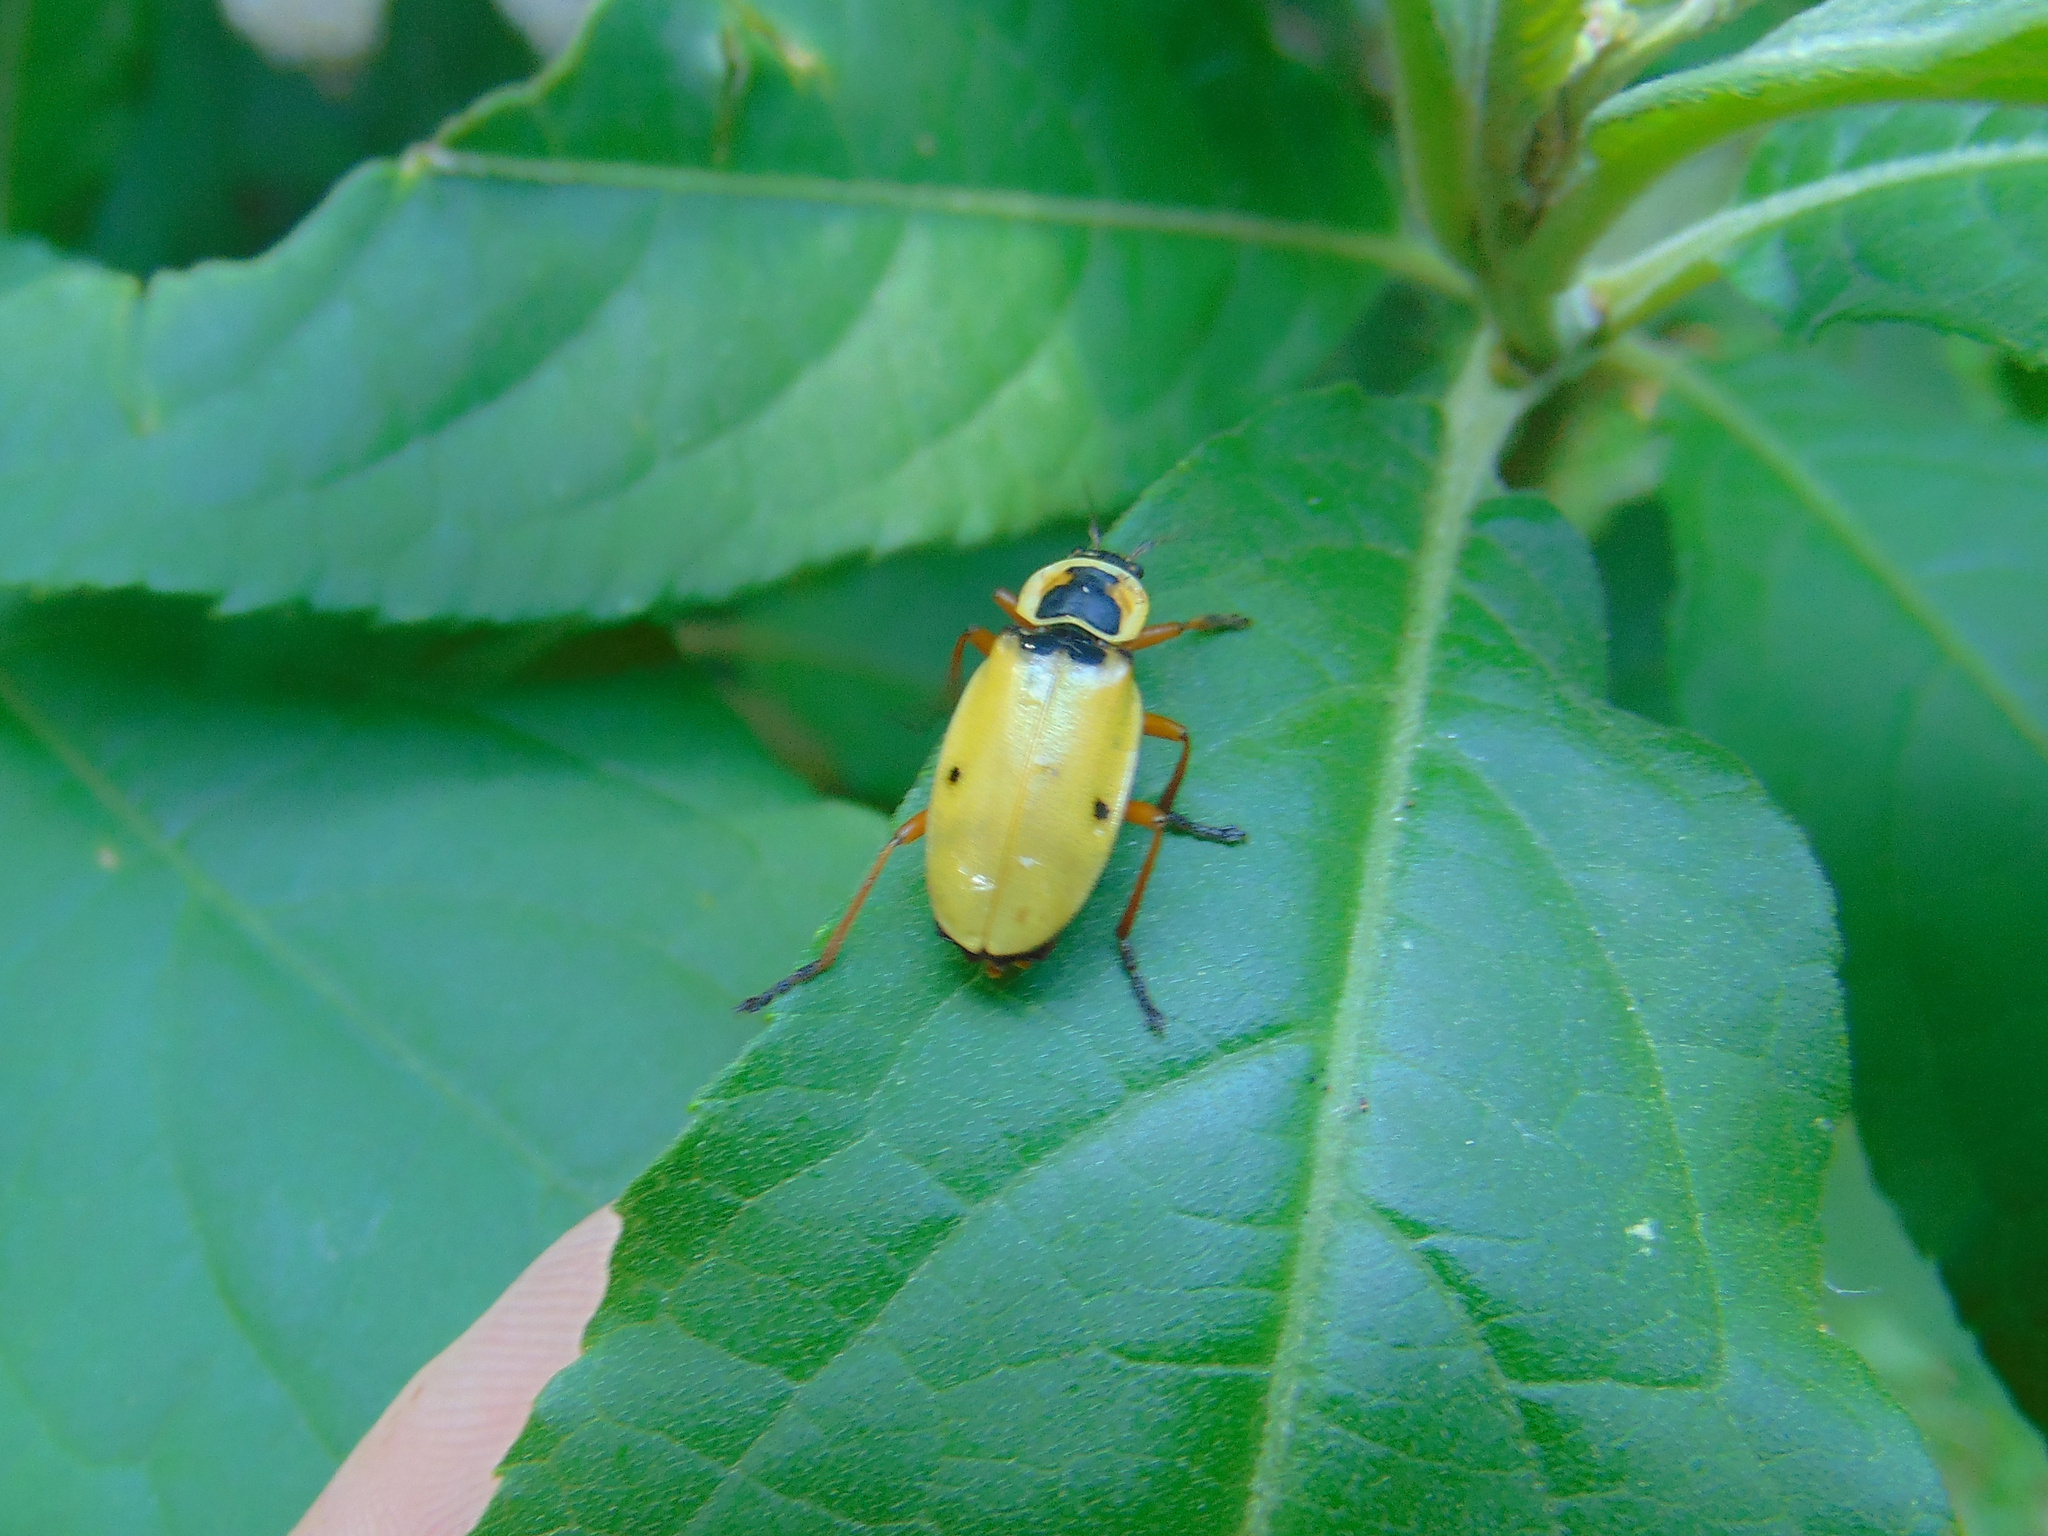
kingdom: Animalia
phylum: Arthropoda
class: Insecta
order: Coleoptera
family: Cantharidae
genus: Chauliognathus
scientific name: Chauliognathus
